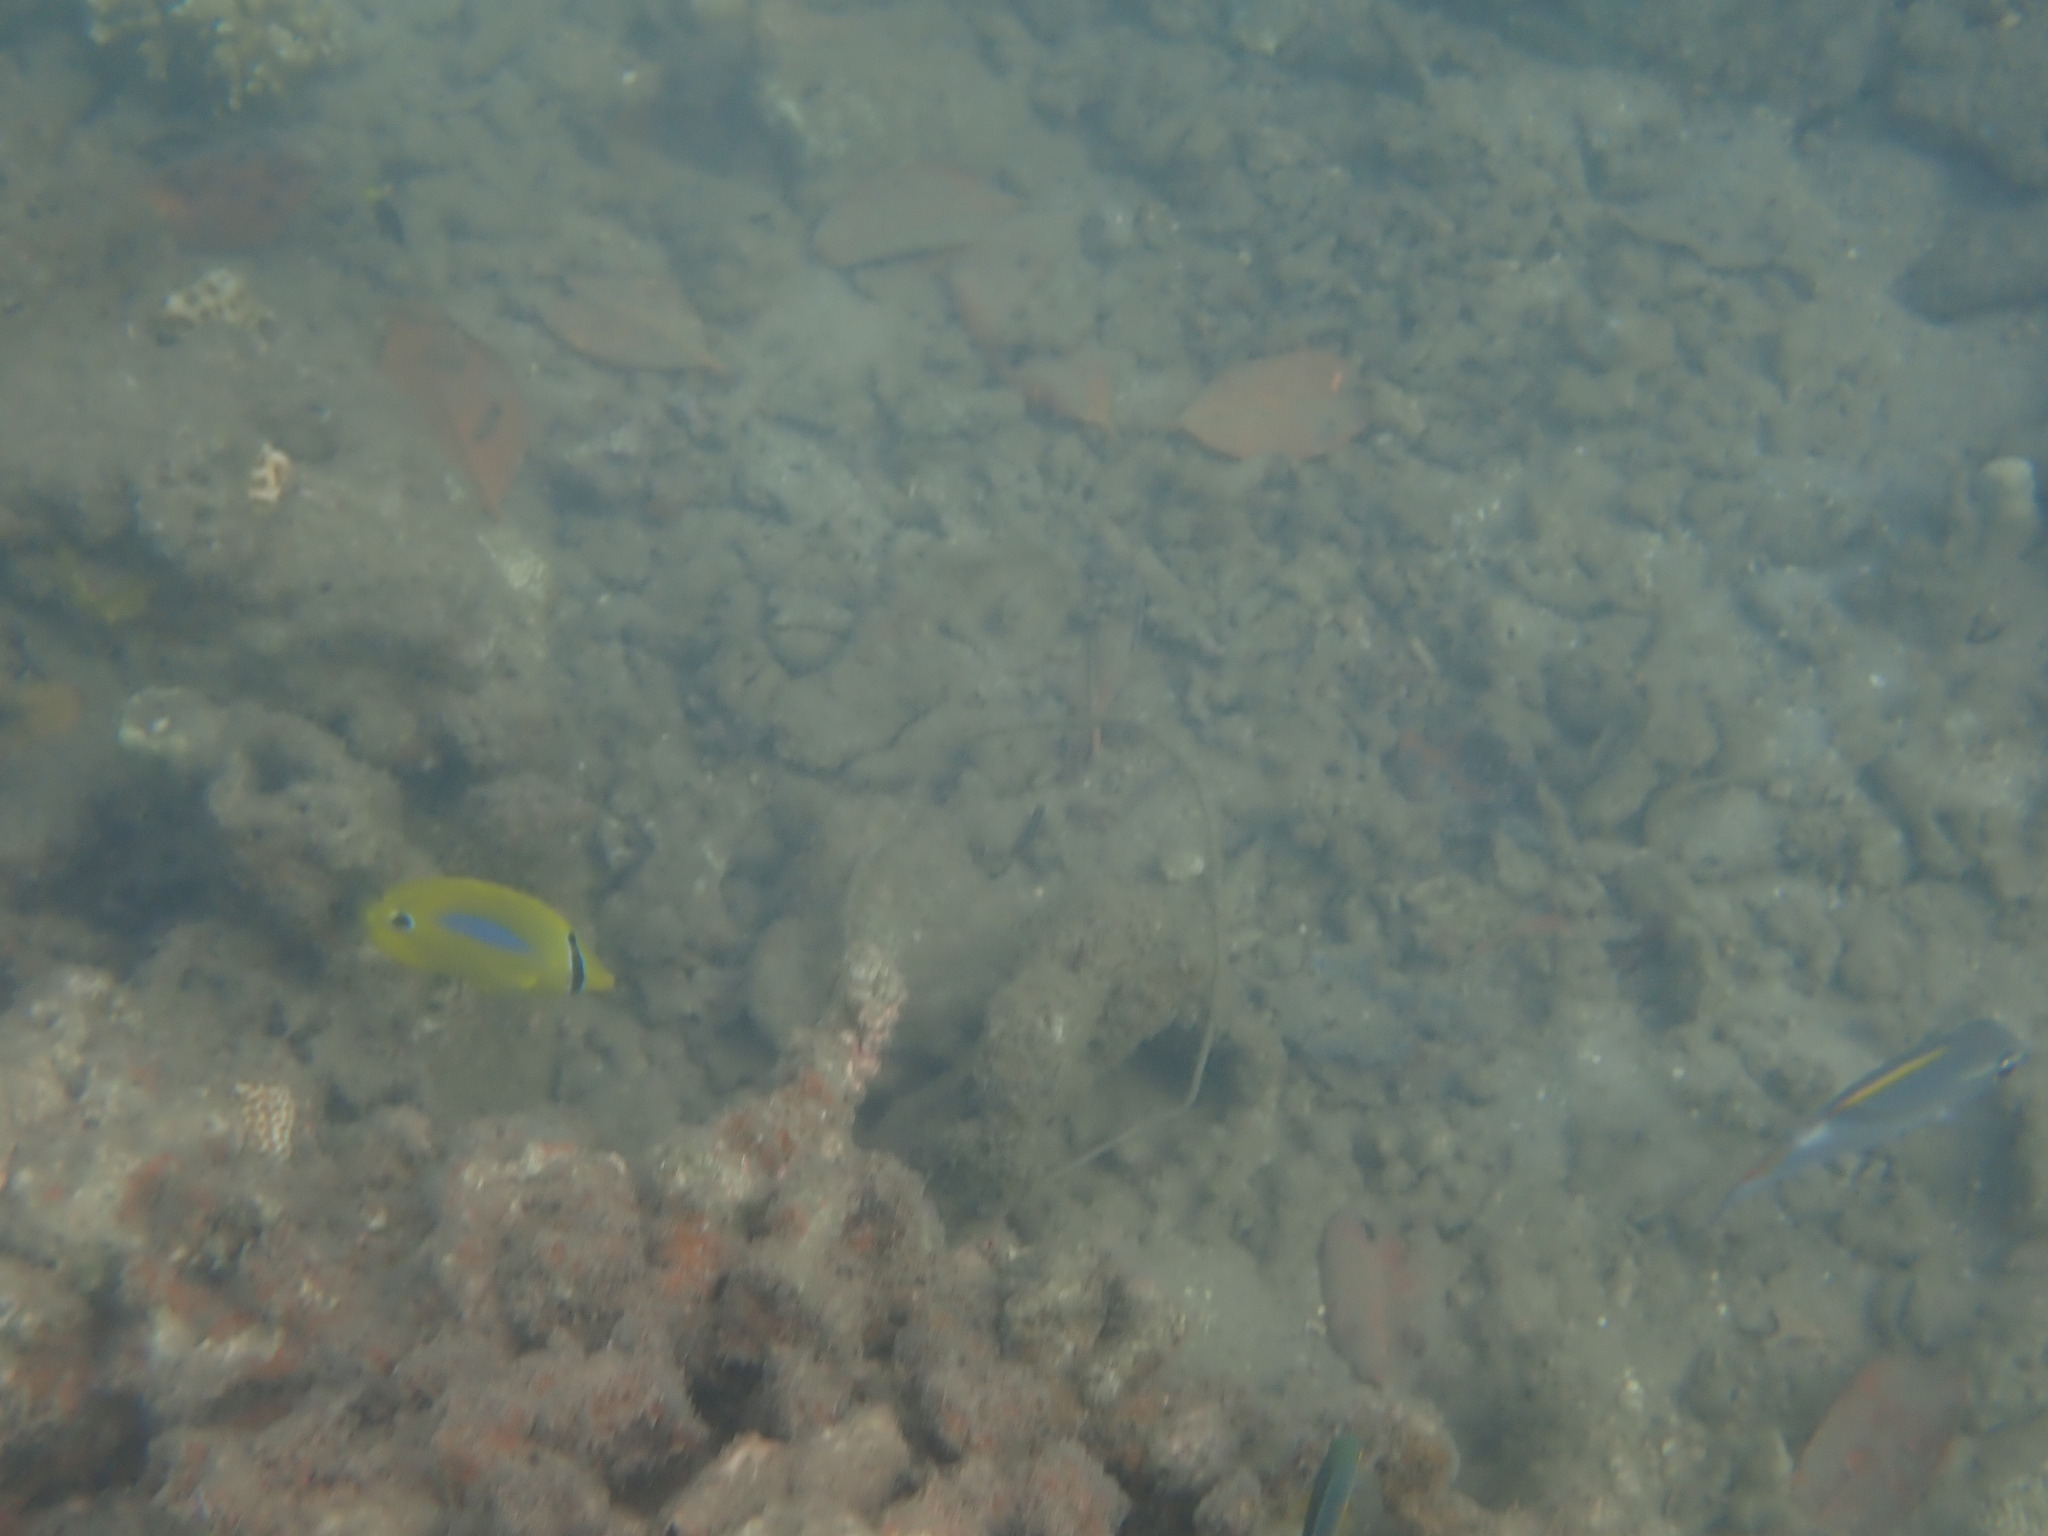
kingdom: Animalia
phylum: Chordata
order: Perciformes
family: Chaetodontidae
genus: Chaetodon
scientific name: Chaetodon plebeius
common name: Bluespot butterflyfish
